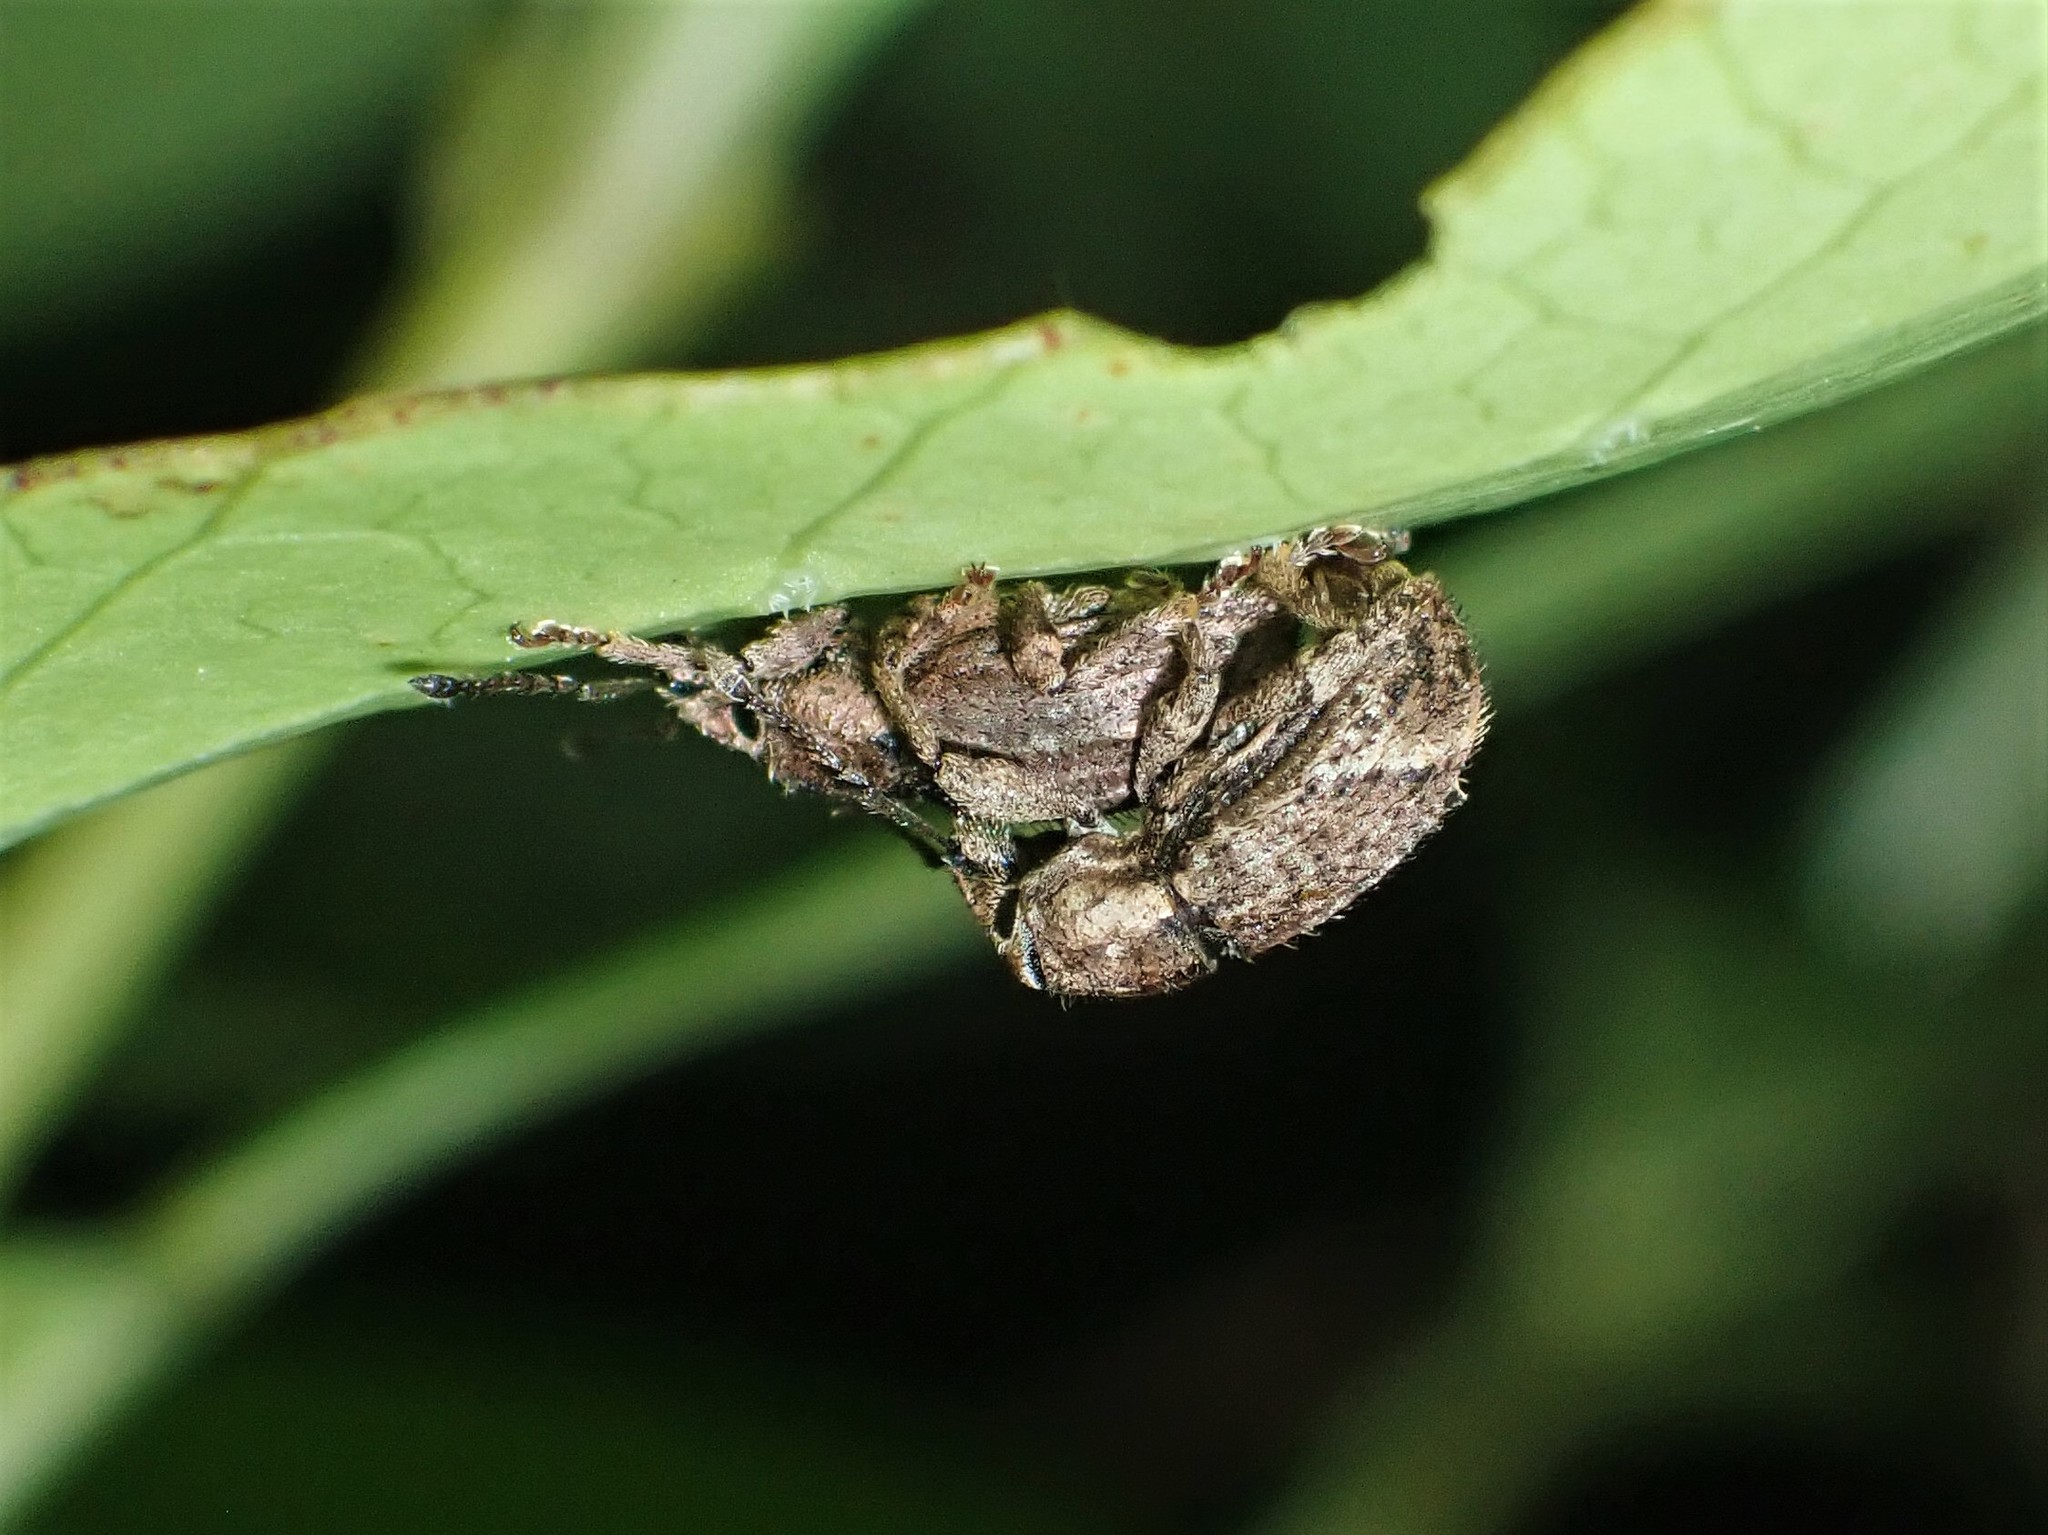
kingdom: Animalia
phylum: Arthropoda
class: Insecta
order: Coleoptera
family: Curculionidae
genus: Chalepistes
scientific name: Chalepistes compressus
